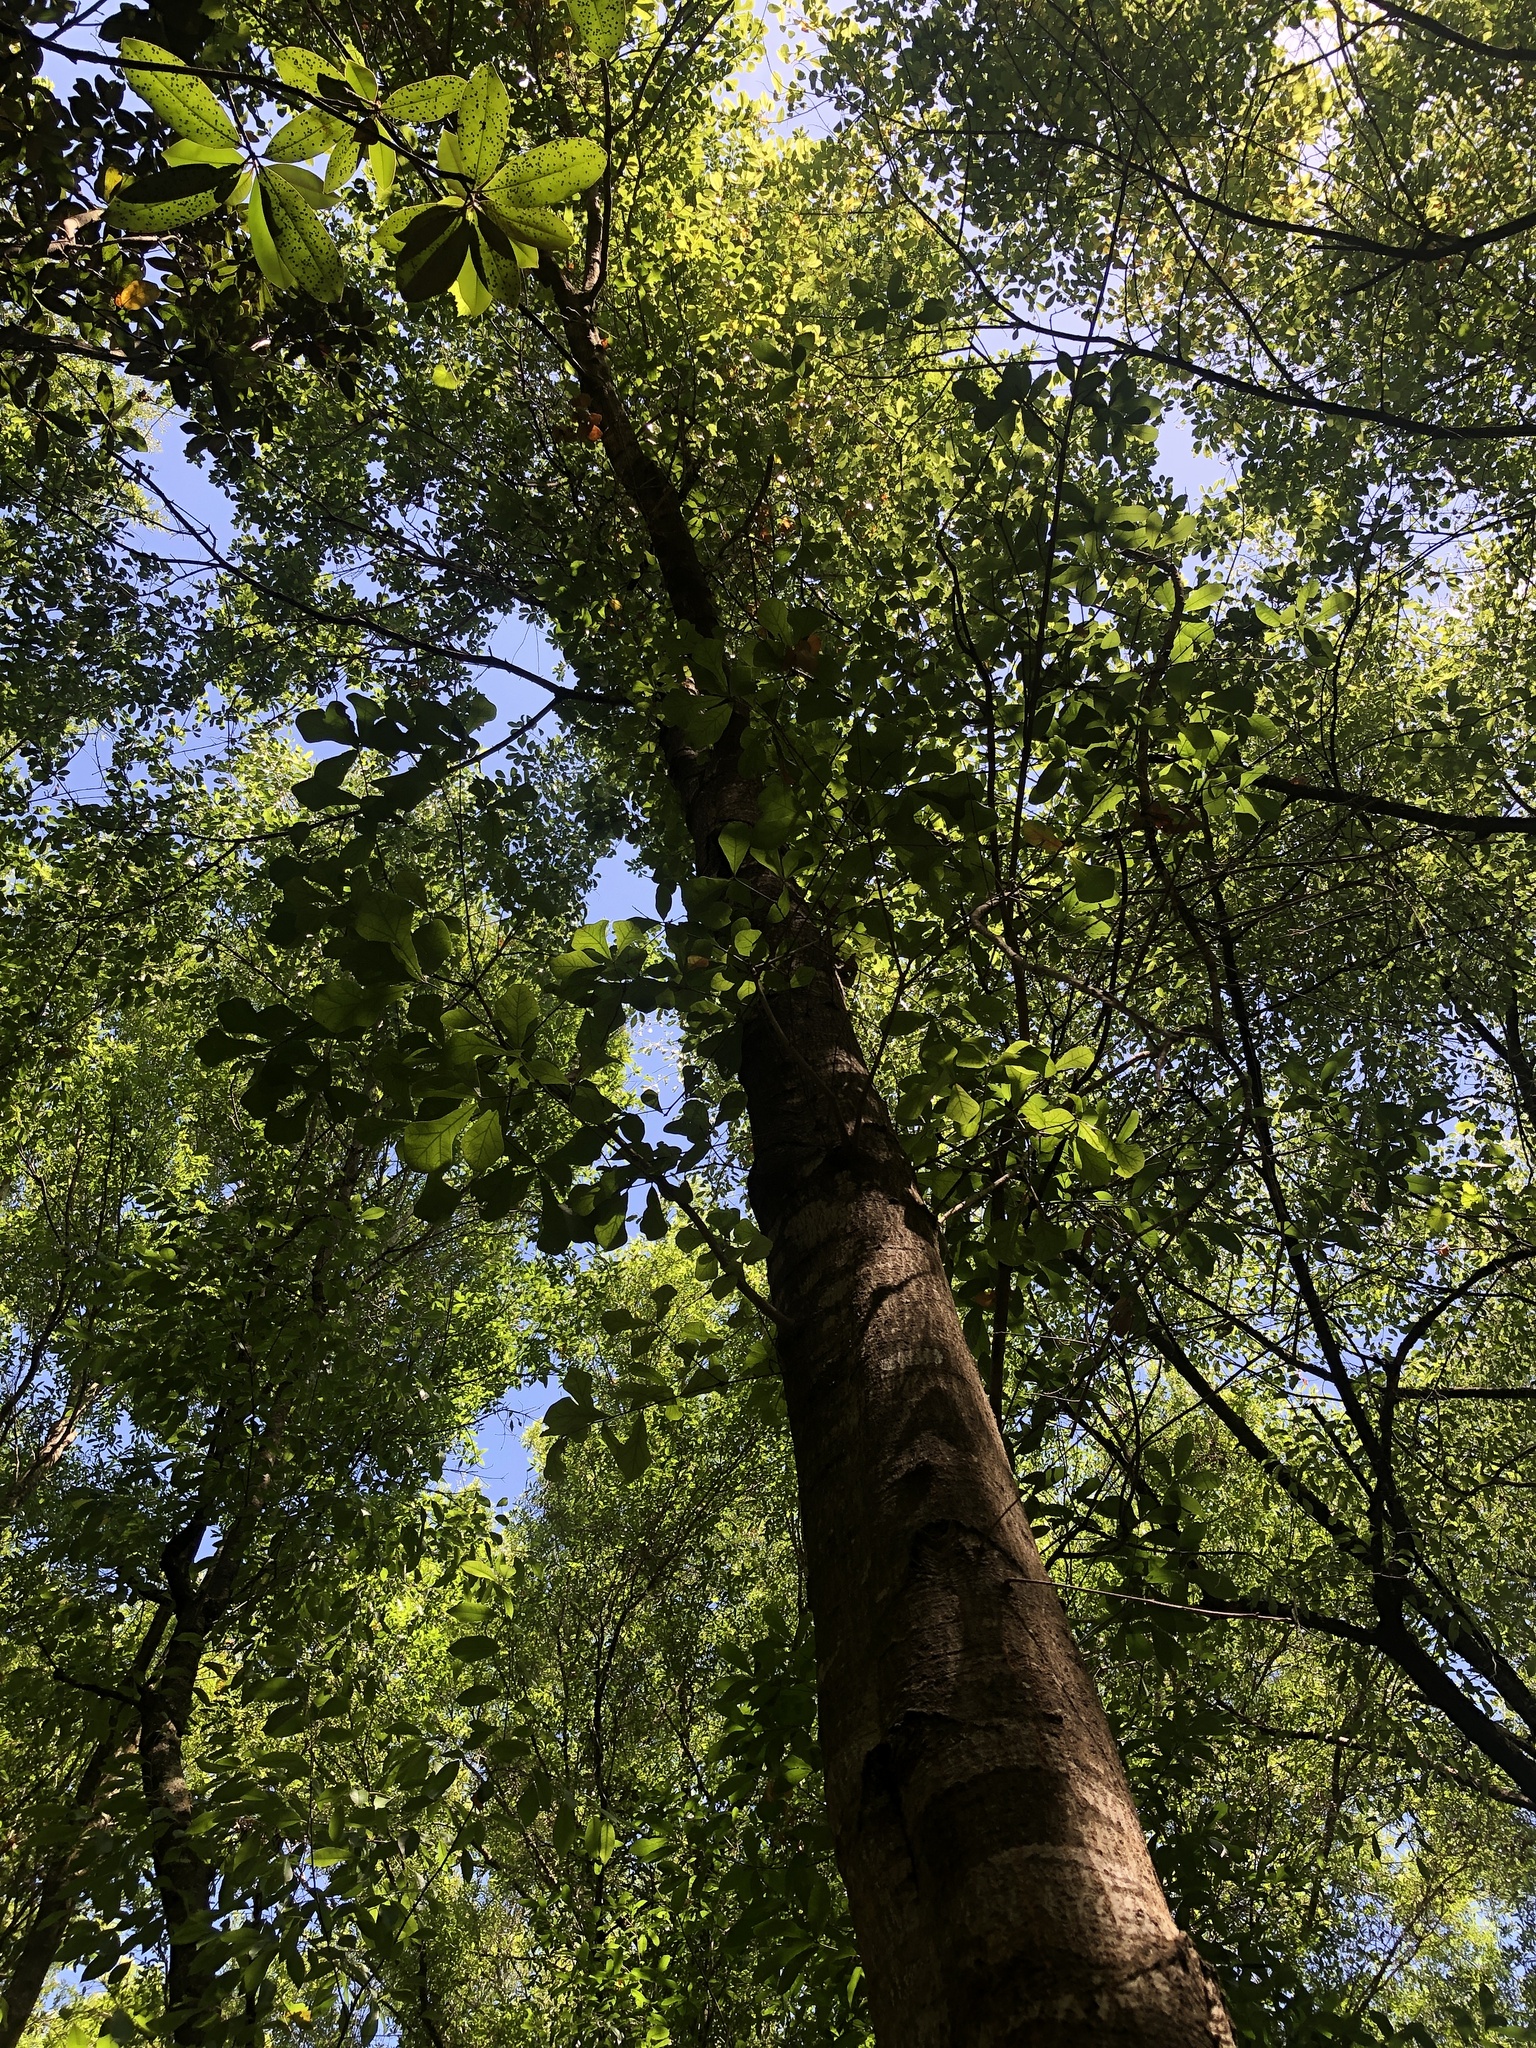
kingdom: Plantae
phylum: Tracheophyta
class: Magnoliopsida
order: Fagales
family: Fagaceae
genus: Quercus
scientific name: Quercus nigra
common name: Water oak
